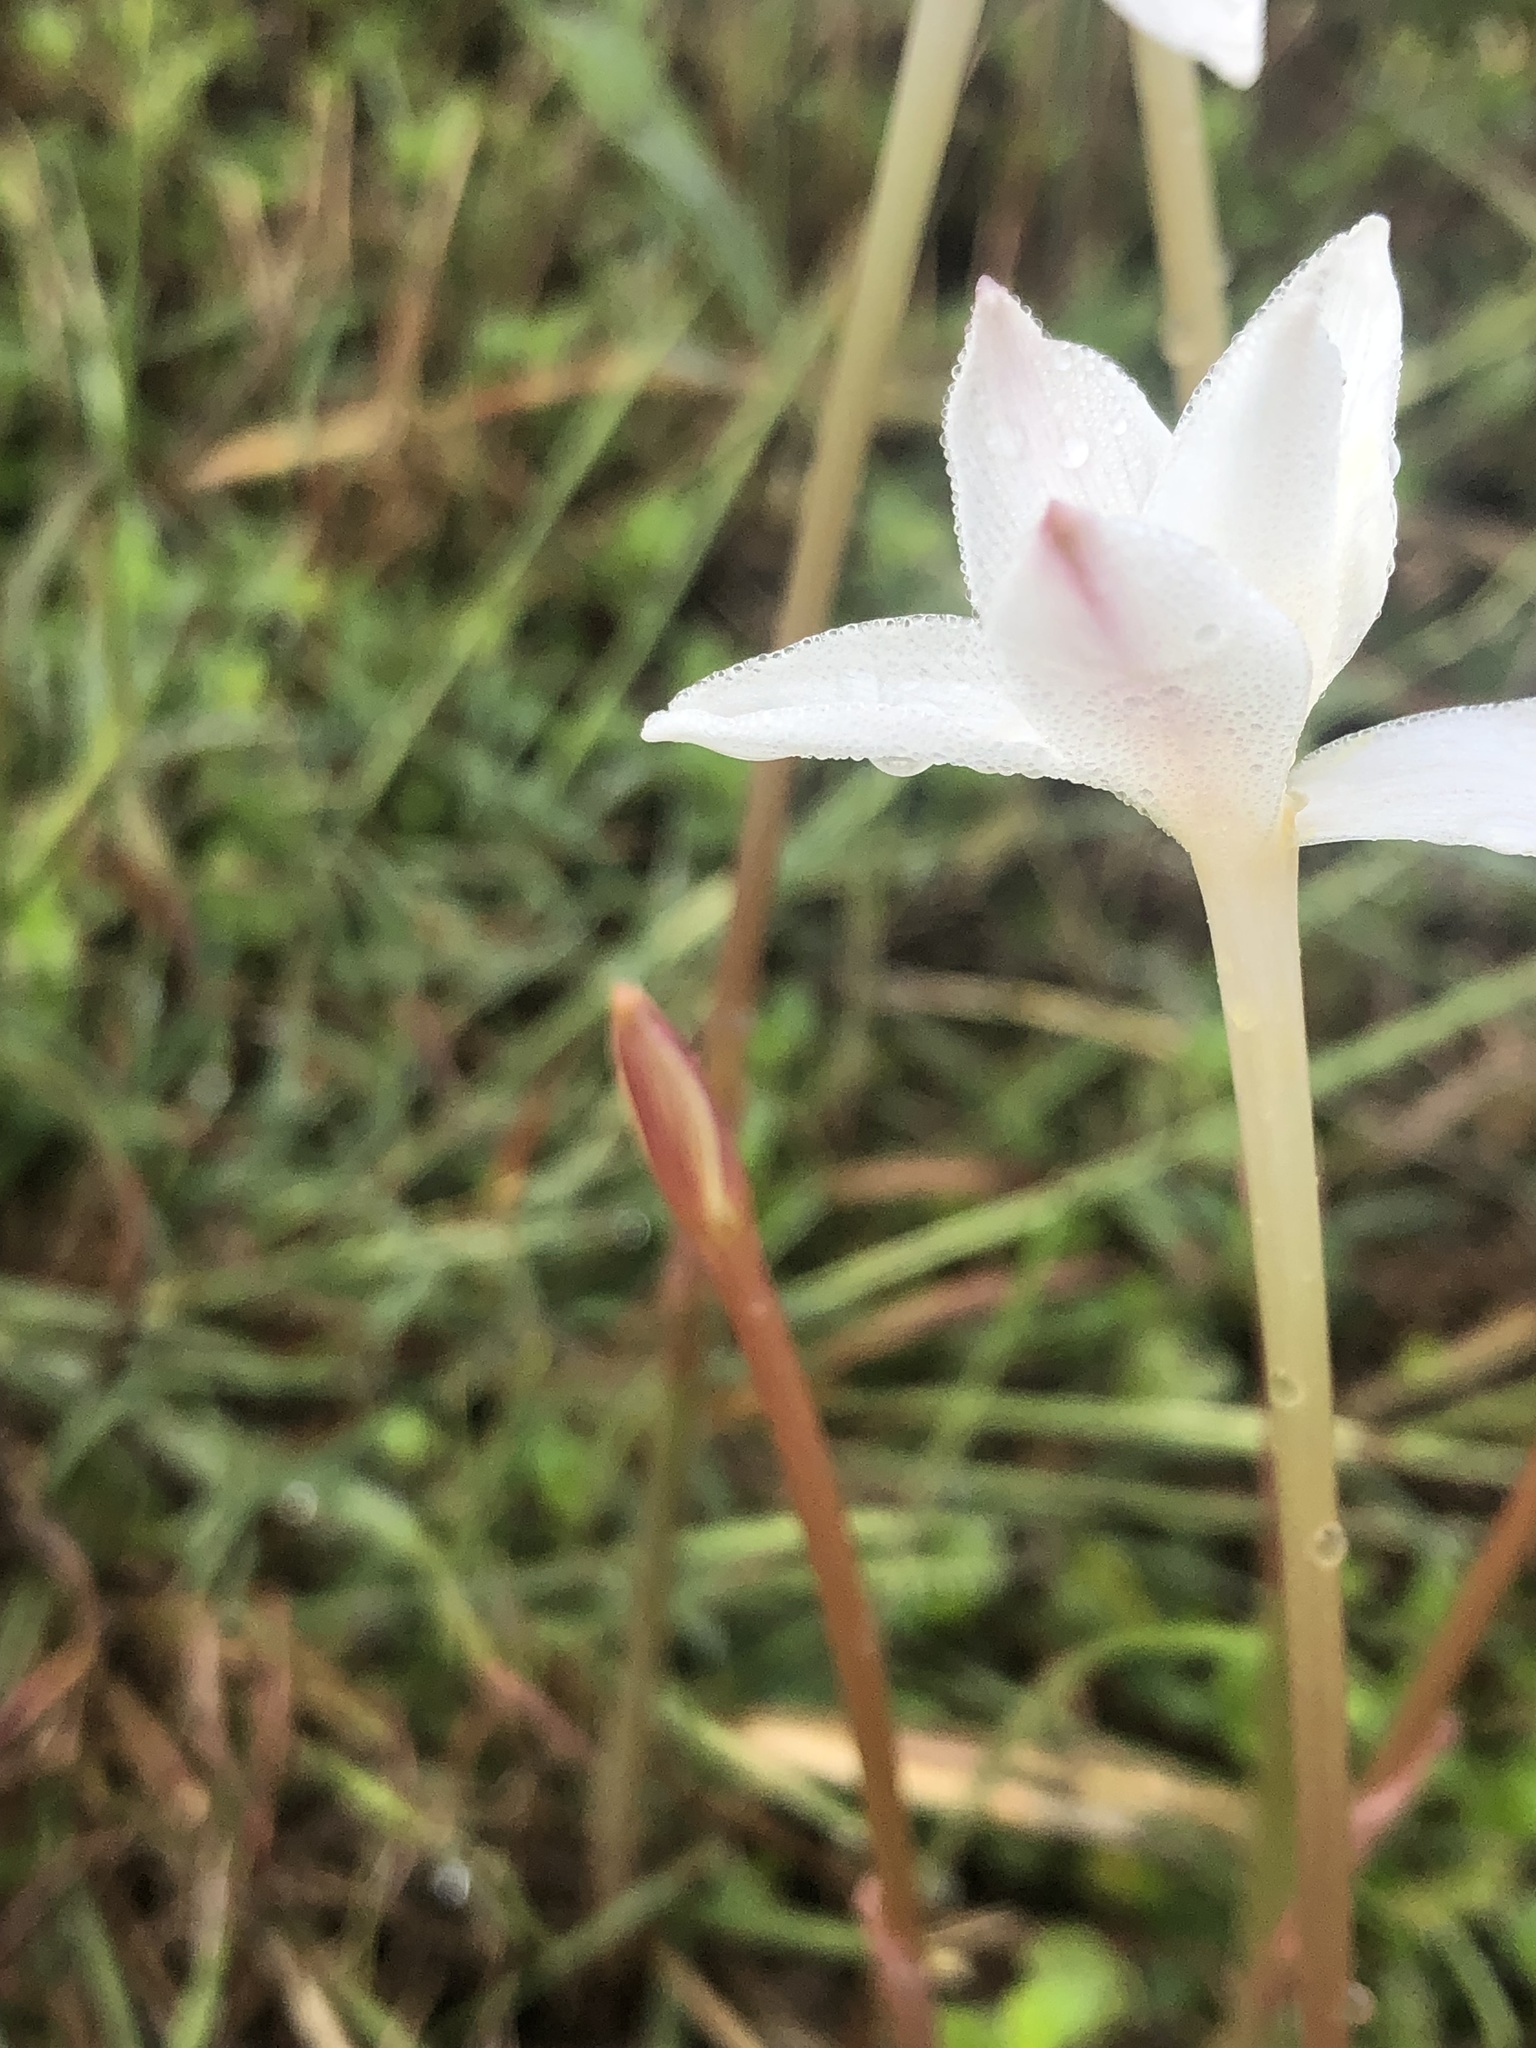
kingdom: Plantae
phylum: Tracheophyta
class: Liliopsida
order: Asparagales
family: Amaryllidaceae
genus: Zephyranthes
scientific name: Zephyranthes chlorosolen
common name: Evening rain-lily
